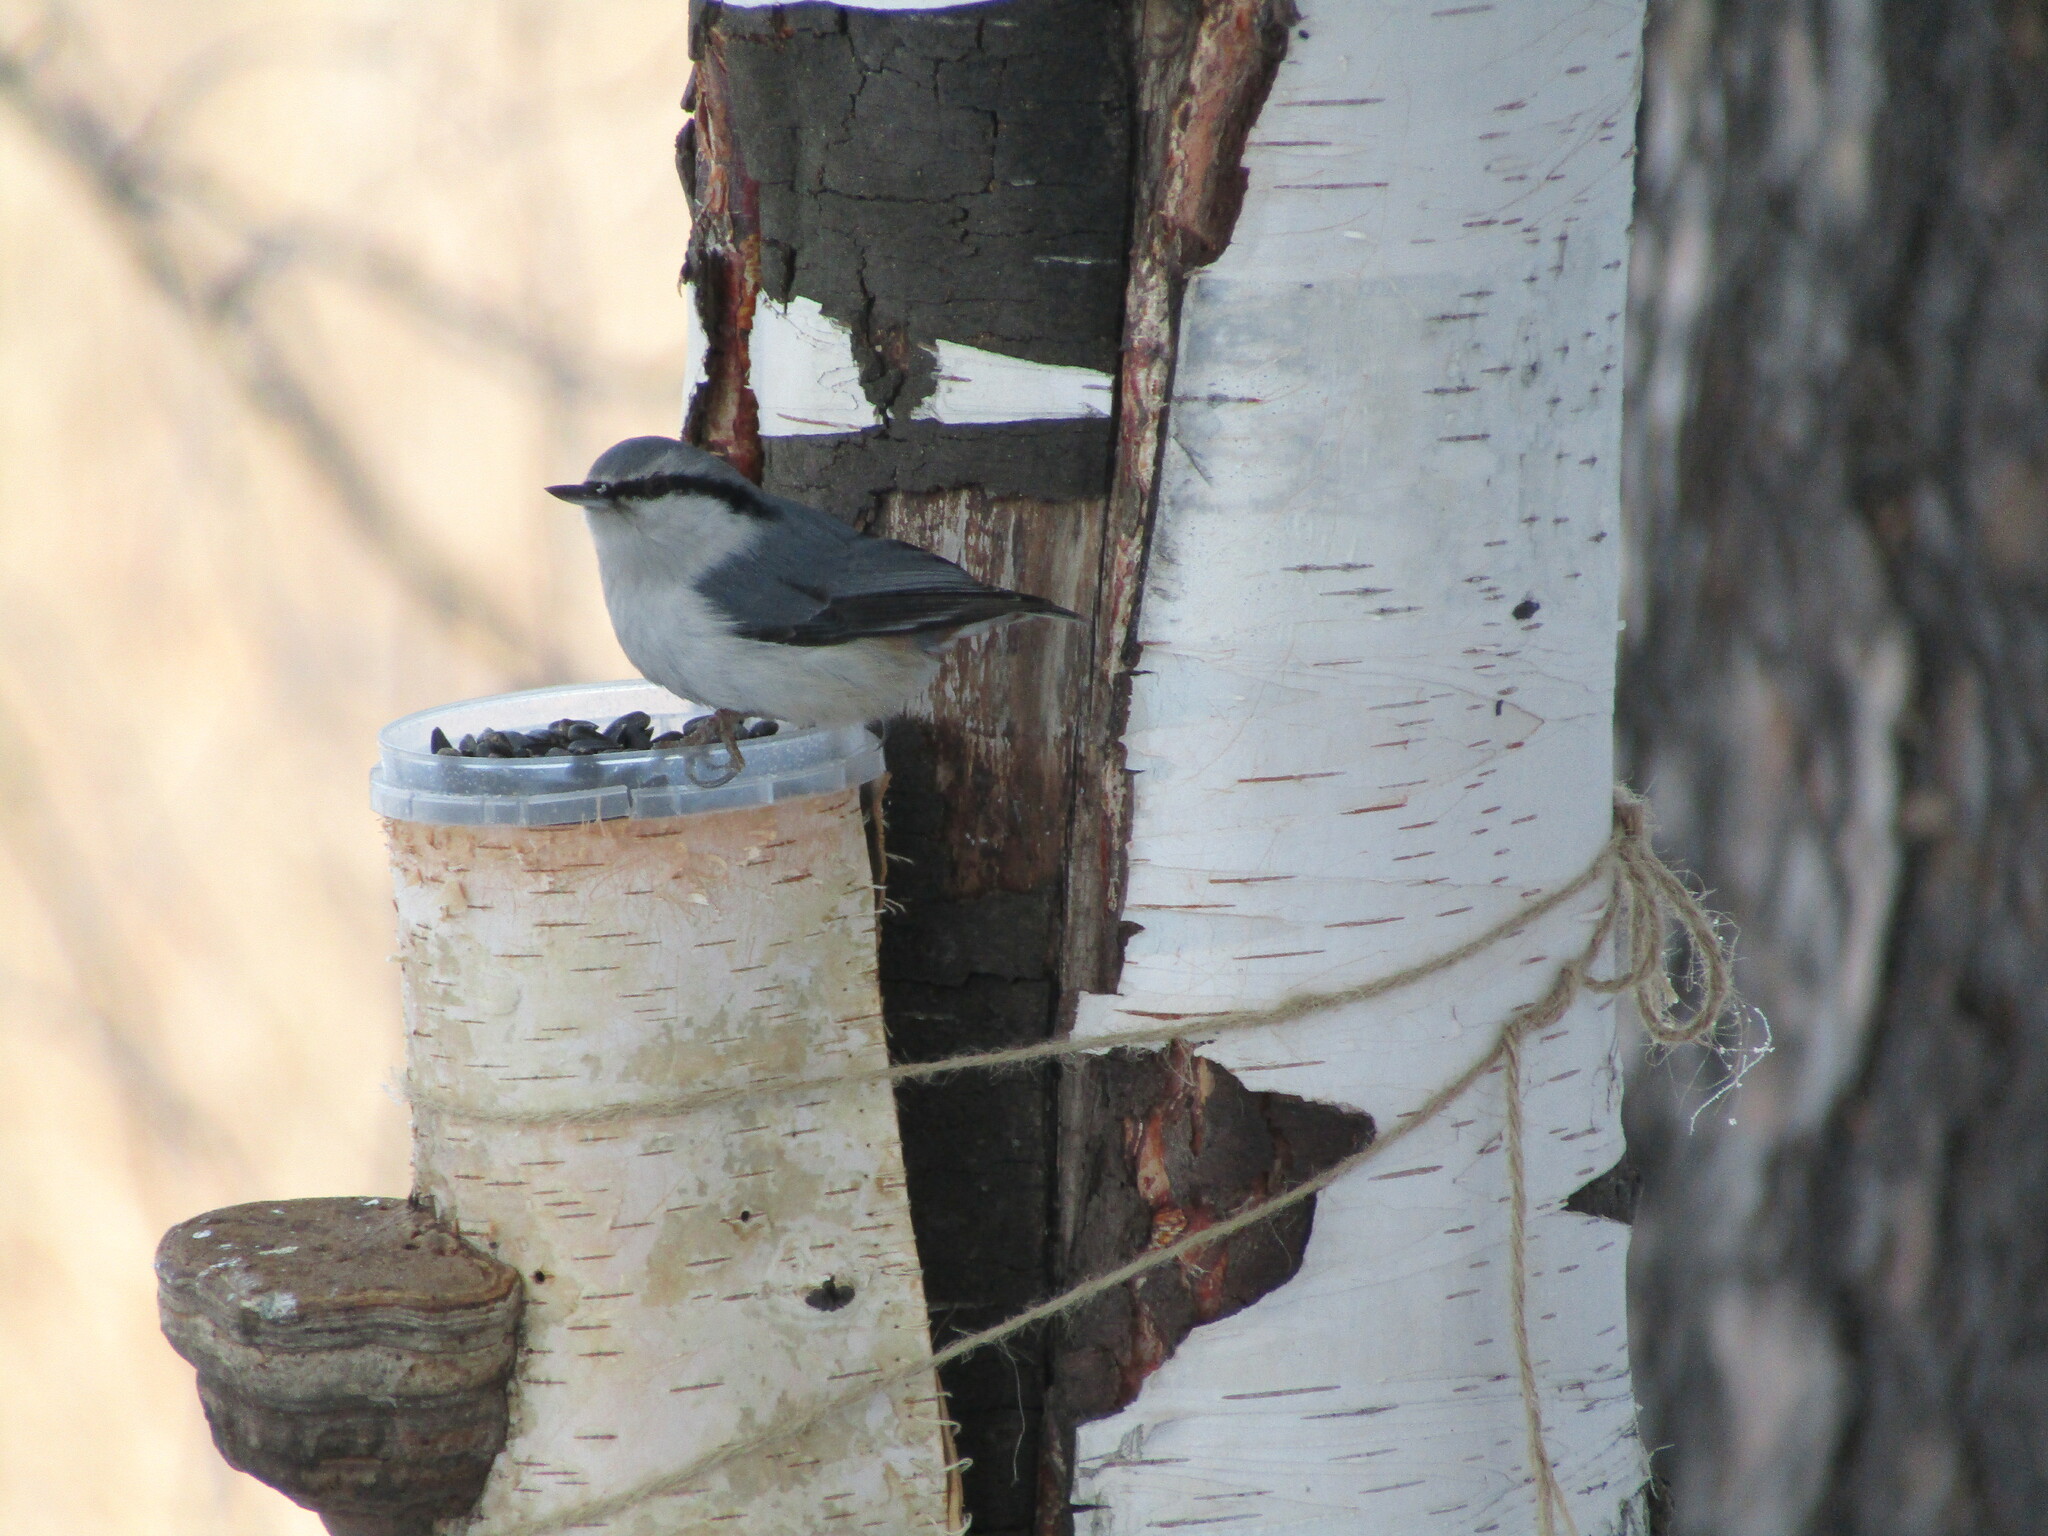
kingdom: Animalia
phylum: Chordata
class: Aves
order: Passeriformes
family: Sittidae
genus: Sitta
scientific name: Sitta europaea
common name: Eurasian nuthatch
